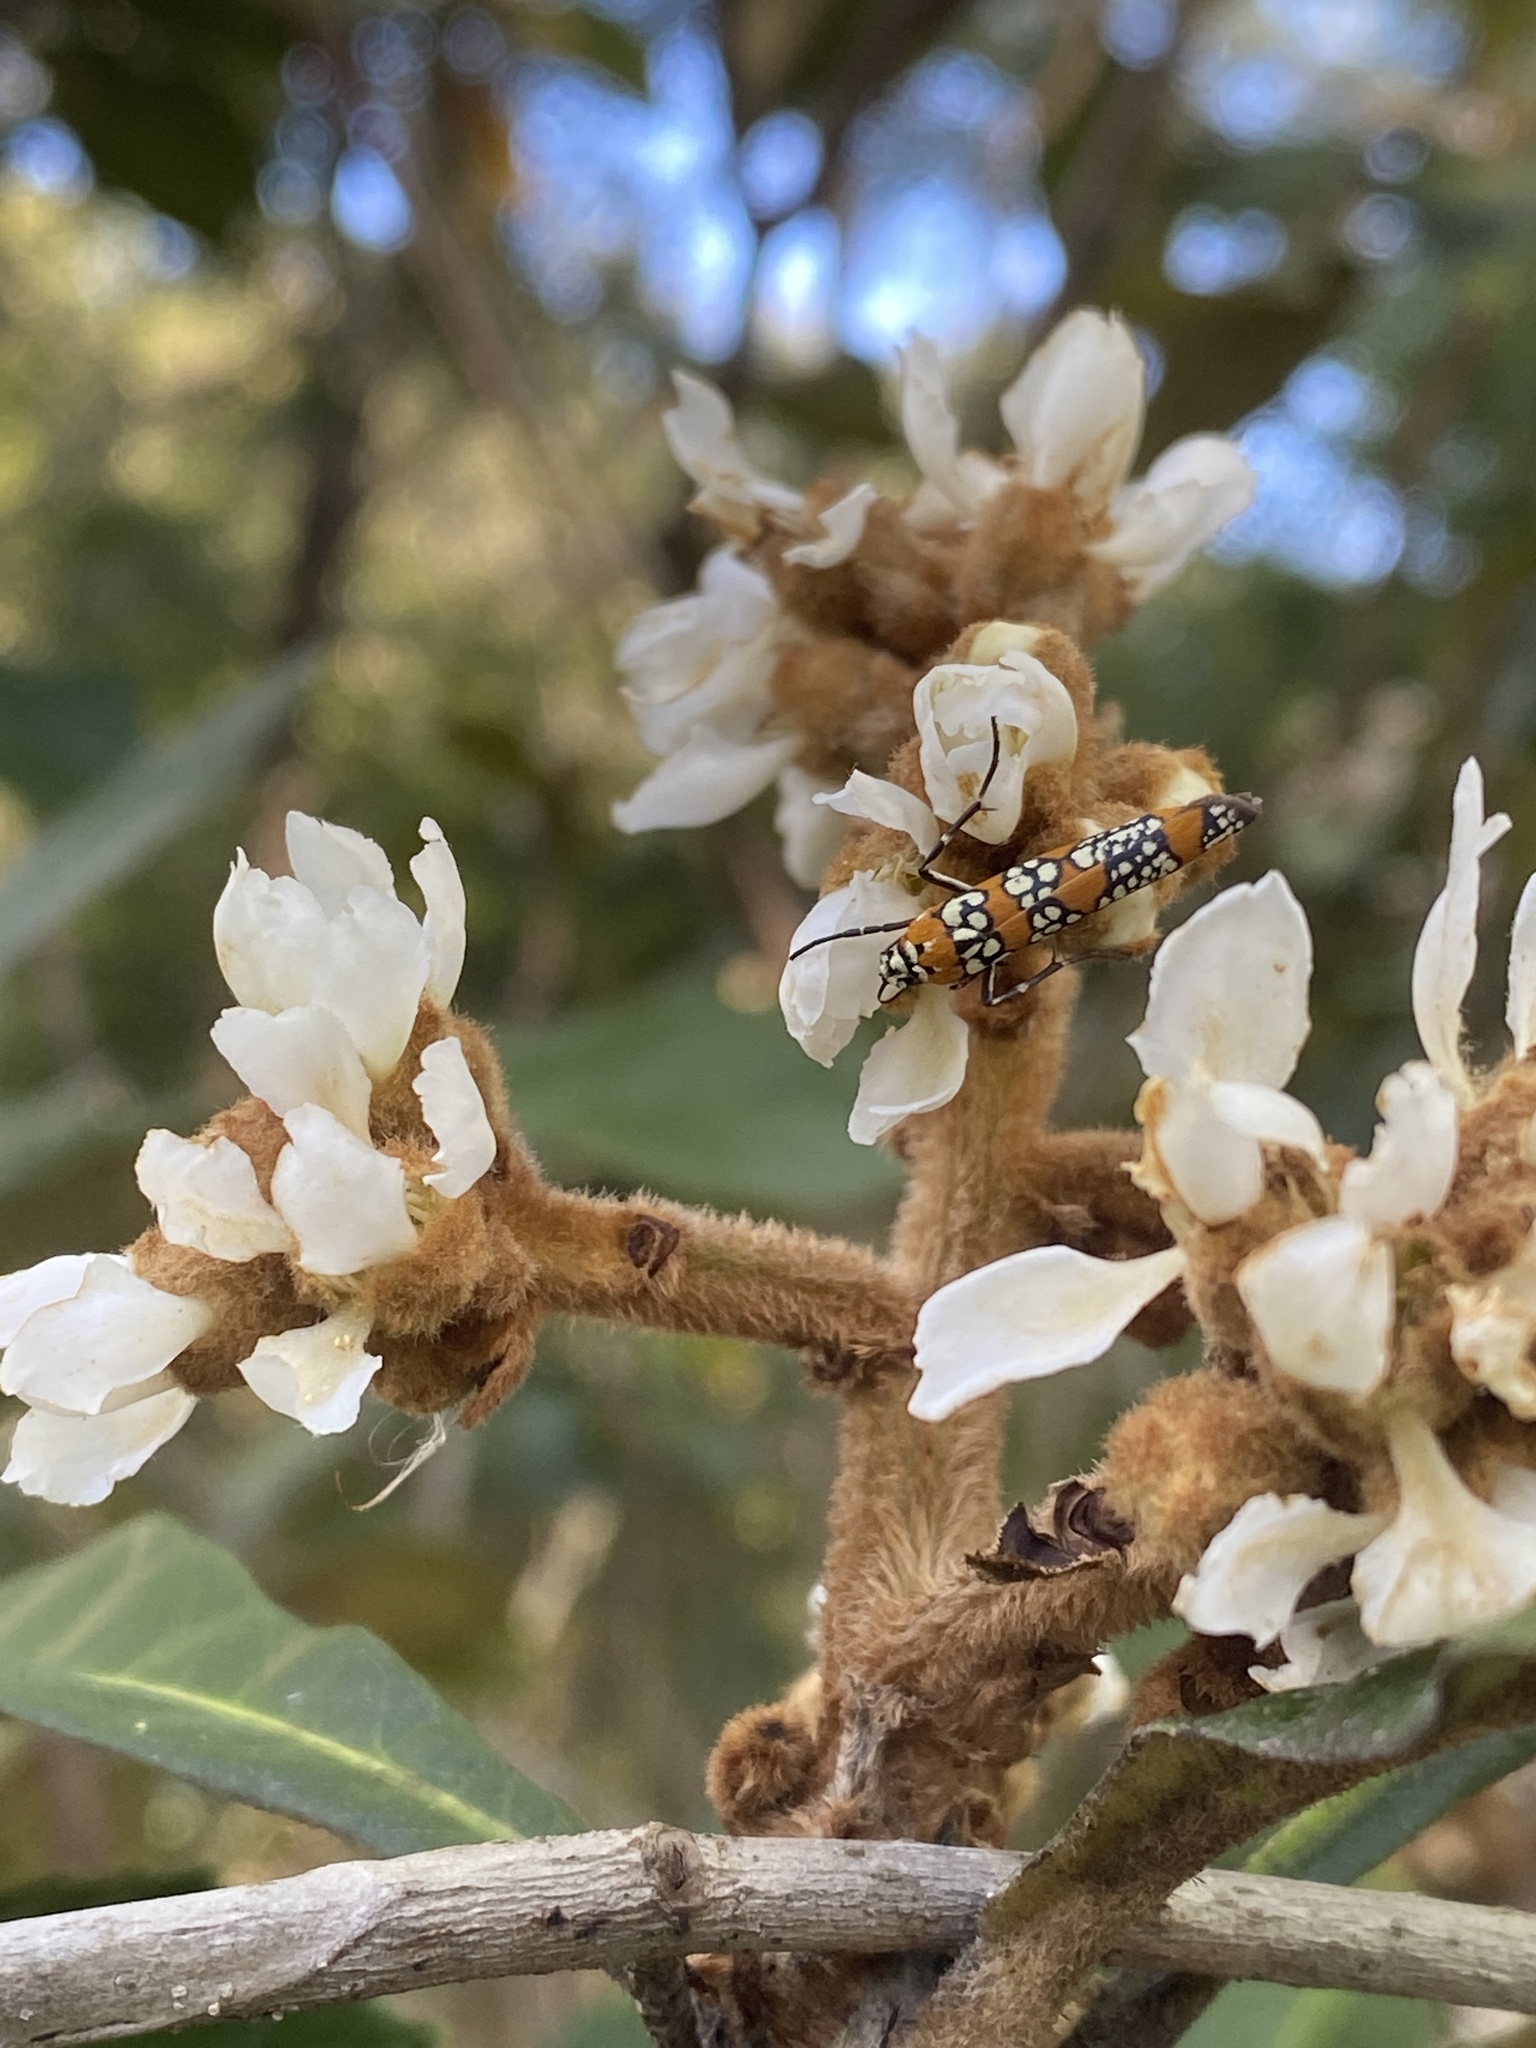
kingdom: Animalia
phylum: Arthropoda
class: Insecta
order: Lepidoptera
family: Attevidae
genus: Atteva
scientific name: Atteva punctella
